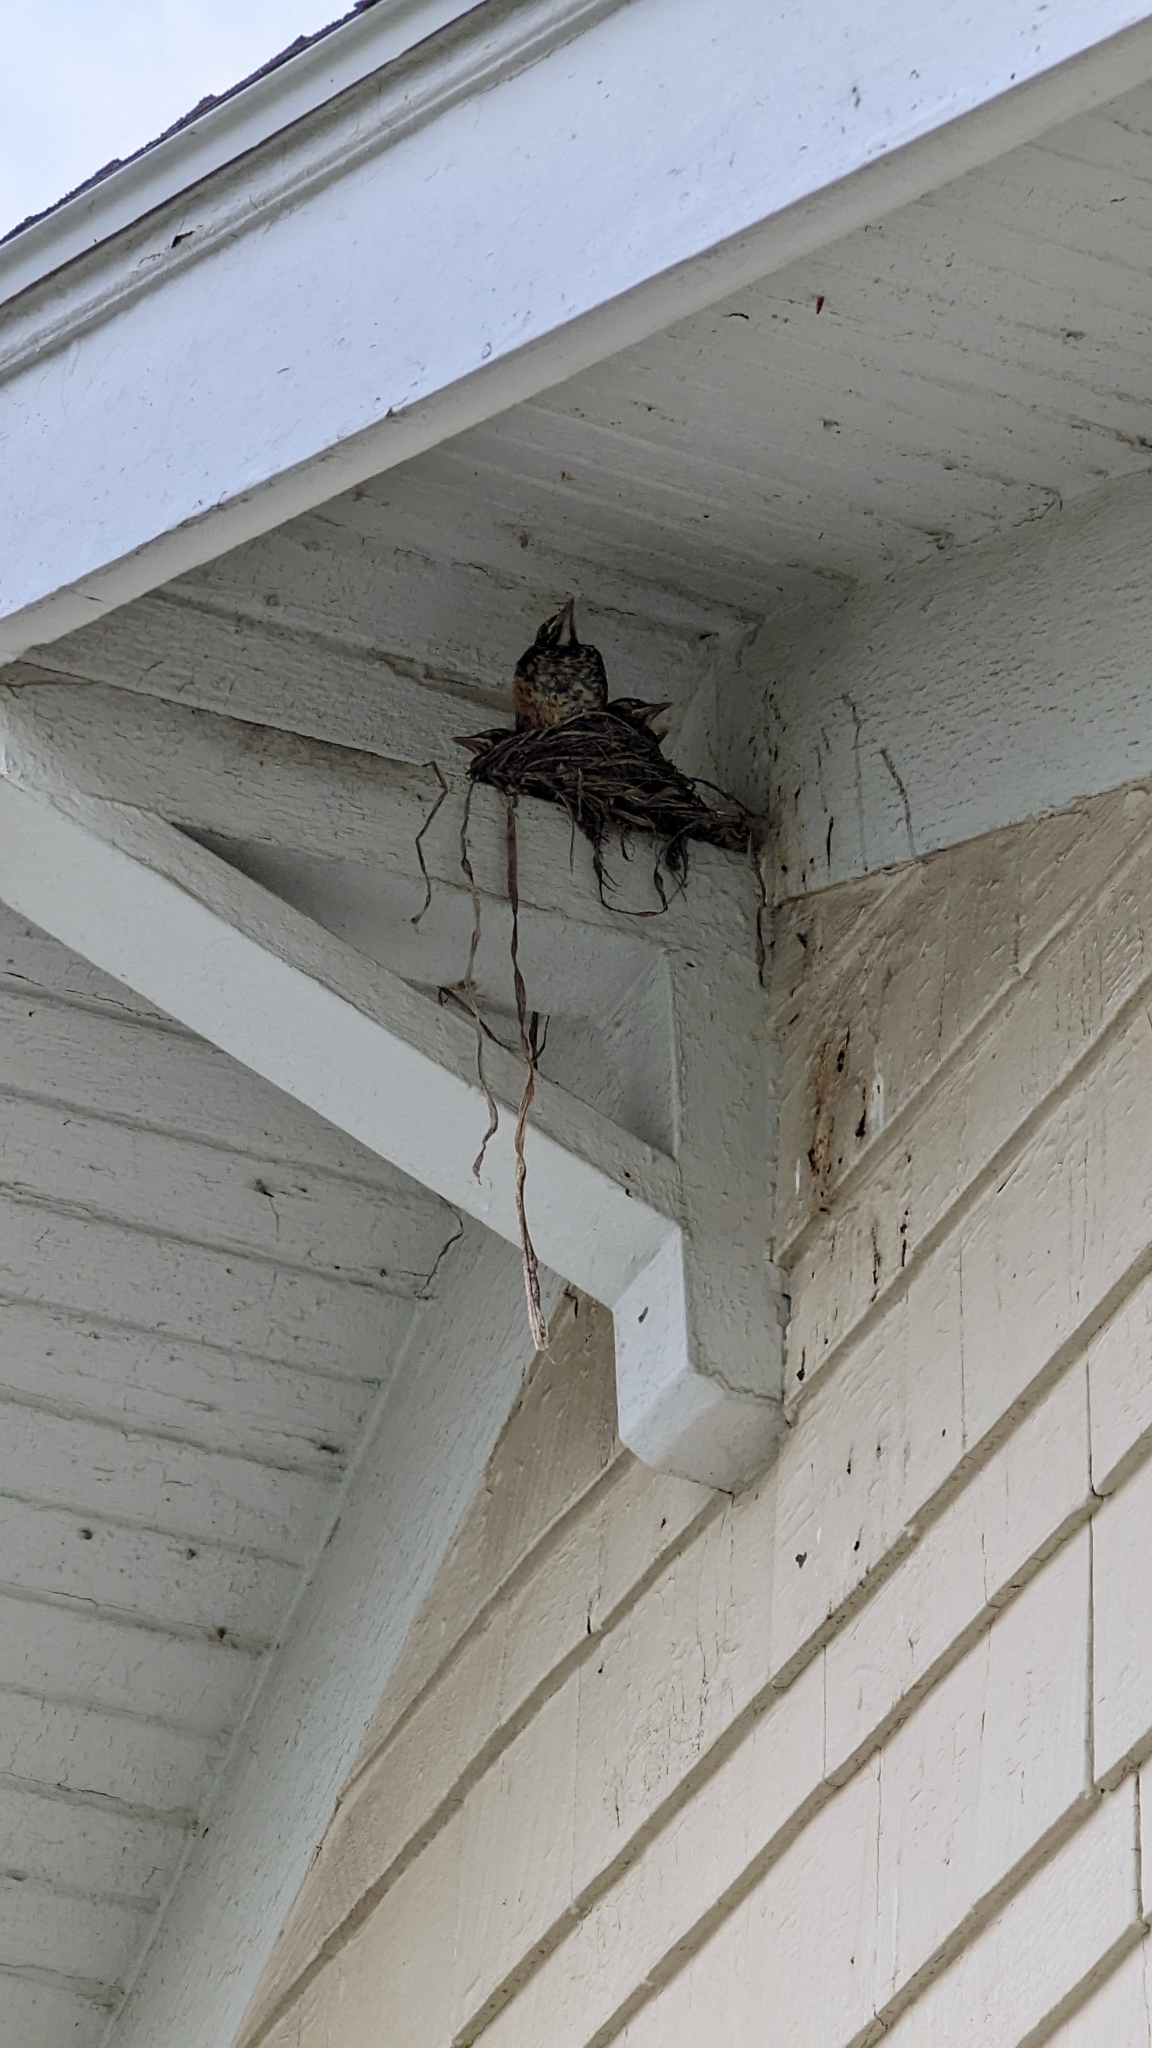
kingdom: Animalia
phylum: Chordata
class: Aves
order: Passeriformes
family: Turdidae
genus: Turdus
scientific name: Turdus migratorius
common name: American robin
